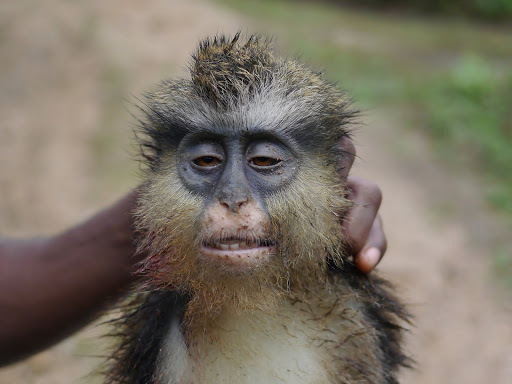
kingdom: Animalia
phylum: Chordata
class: Mammalia
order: Primates
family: Cercopithecidae
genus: Cercopithecus
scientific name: Cercopithecus mona
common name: Mona monkey
